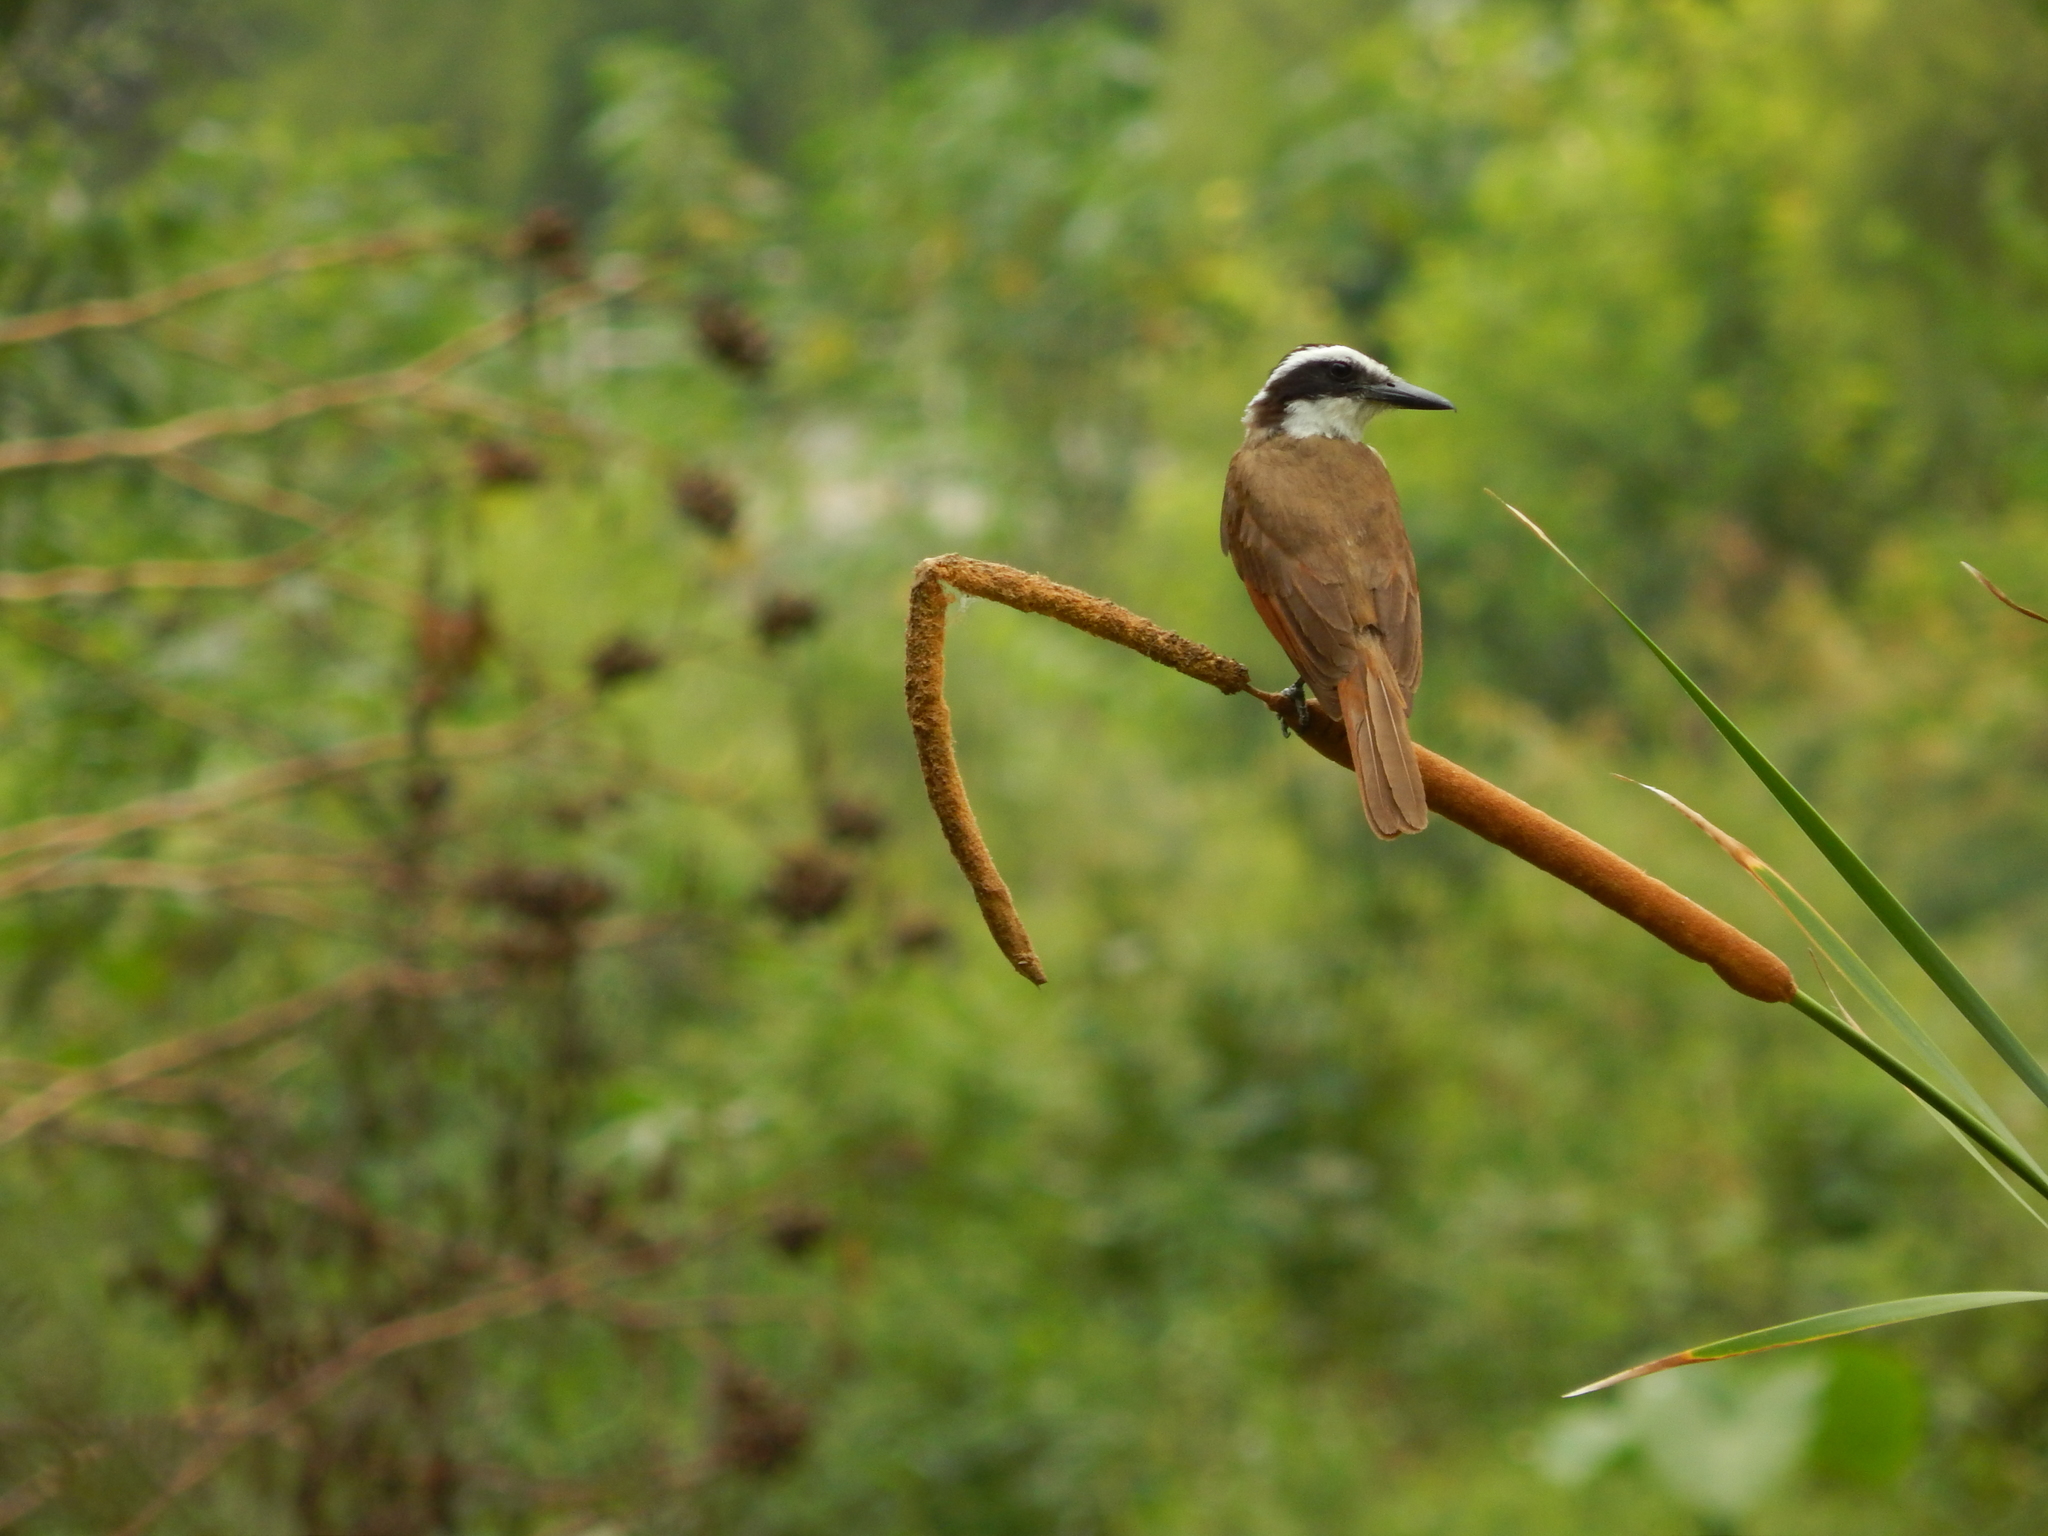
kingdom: Animalia
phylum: Chordata
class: Aves
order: Passeriformes
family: Tyrannidae
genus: Pitangus
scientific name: Pitangus sulphuratus
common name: Great kiskadee
